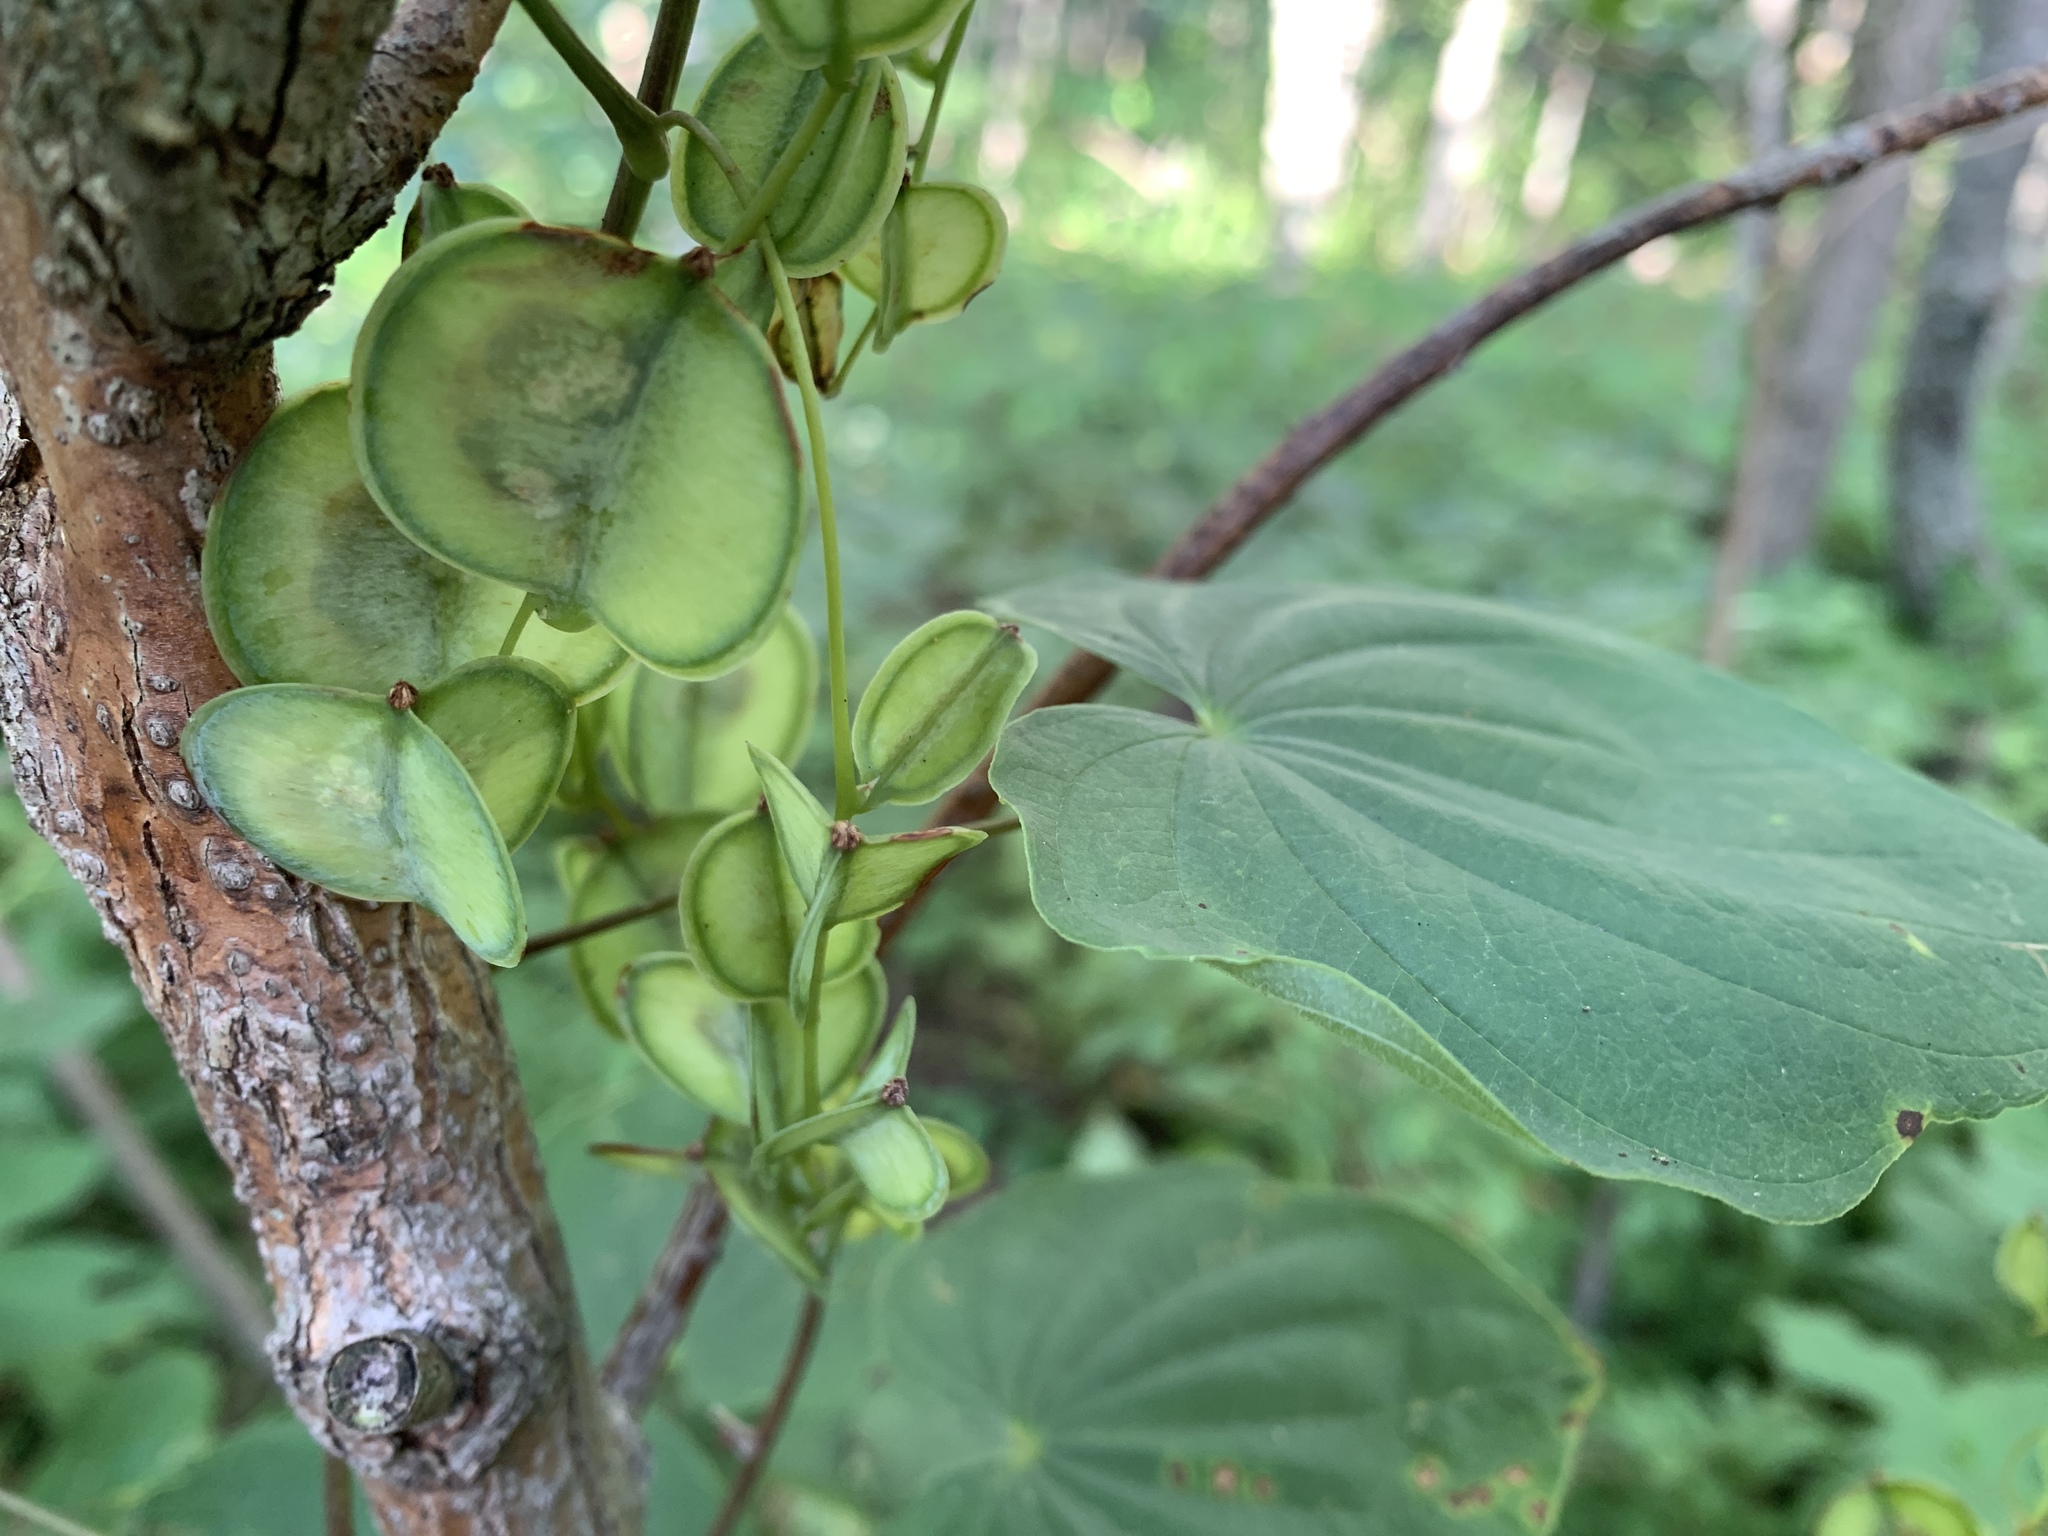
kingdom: Plantae
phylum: Tracheophyta
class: Liliopsida
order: Dioscoreales
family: Dioscoreaceae
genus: Dioscorea
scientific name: Dioscorea villosa
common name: Wild yam
